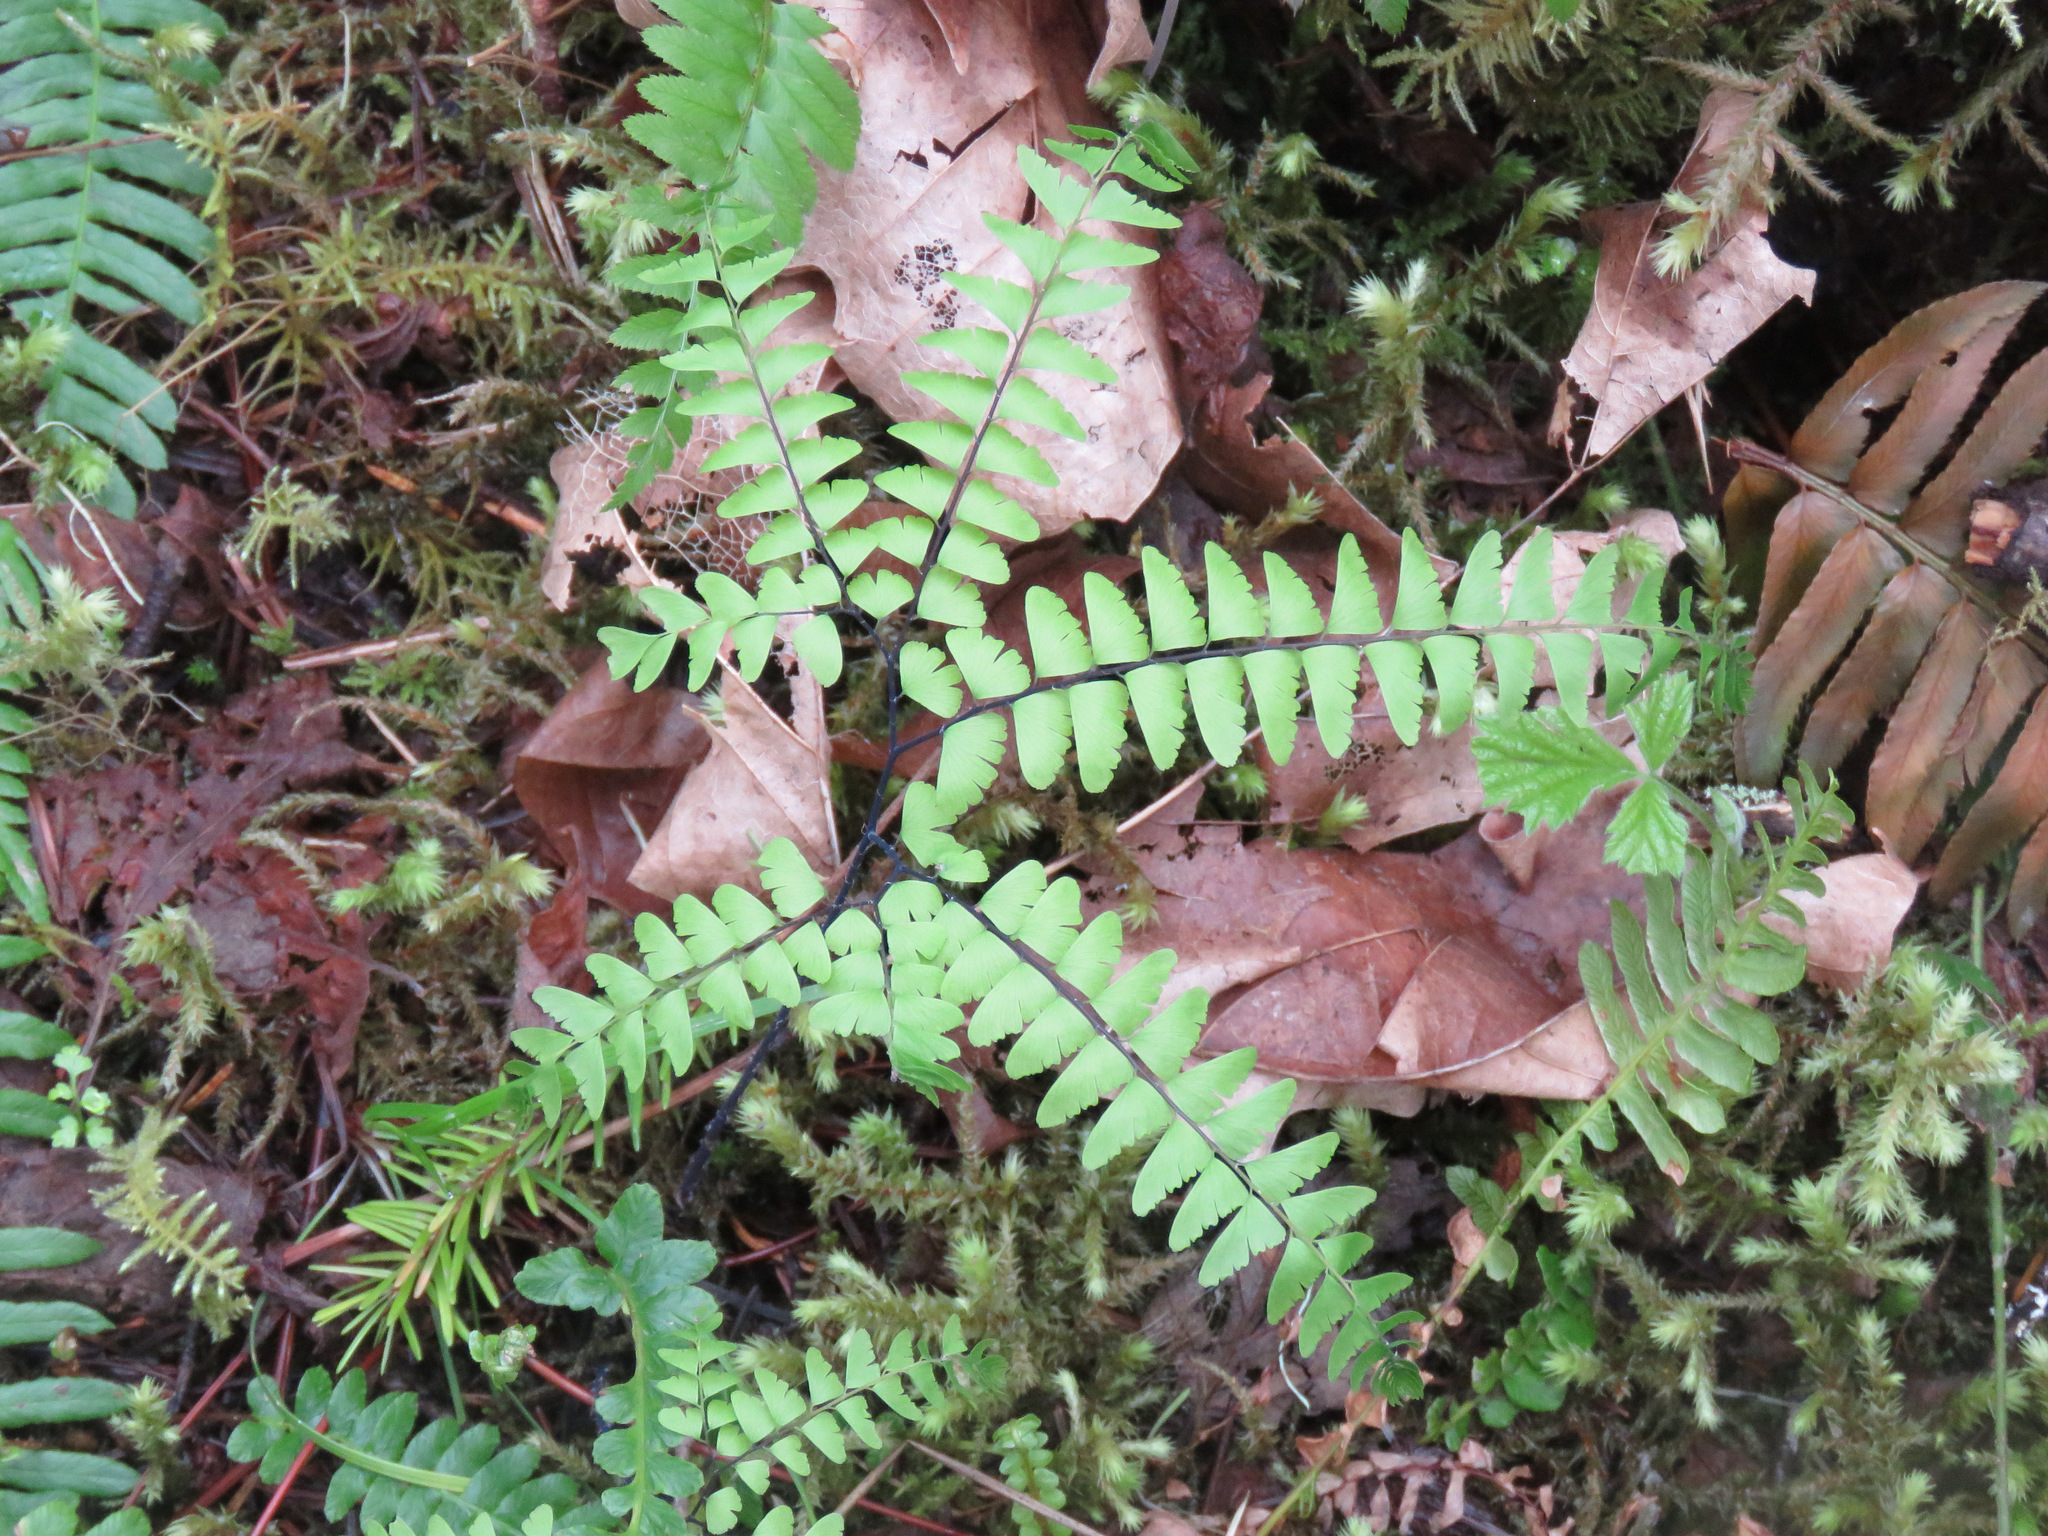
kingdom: Plantae
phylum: Tracheophyta
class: Polypodiopsida
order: Polypodiales
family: Pteridaceae
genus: Adiantum
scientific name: Adiantum aleuticum
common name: Aleutian maidenhair fern
